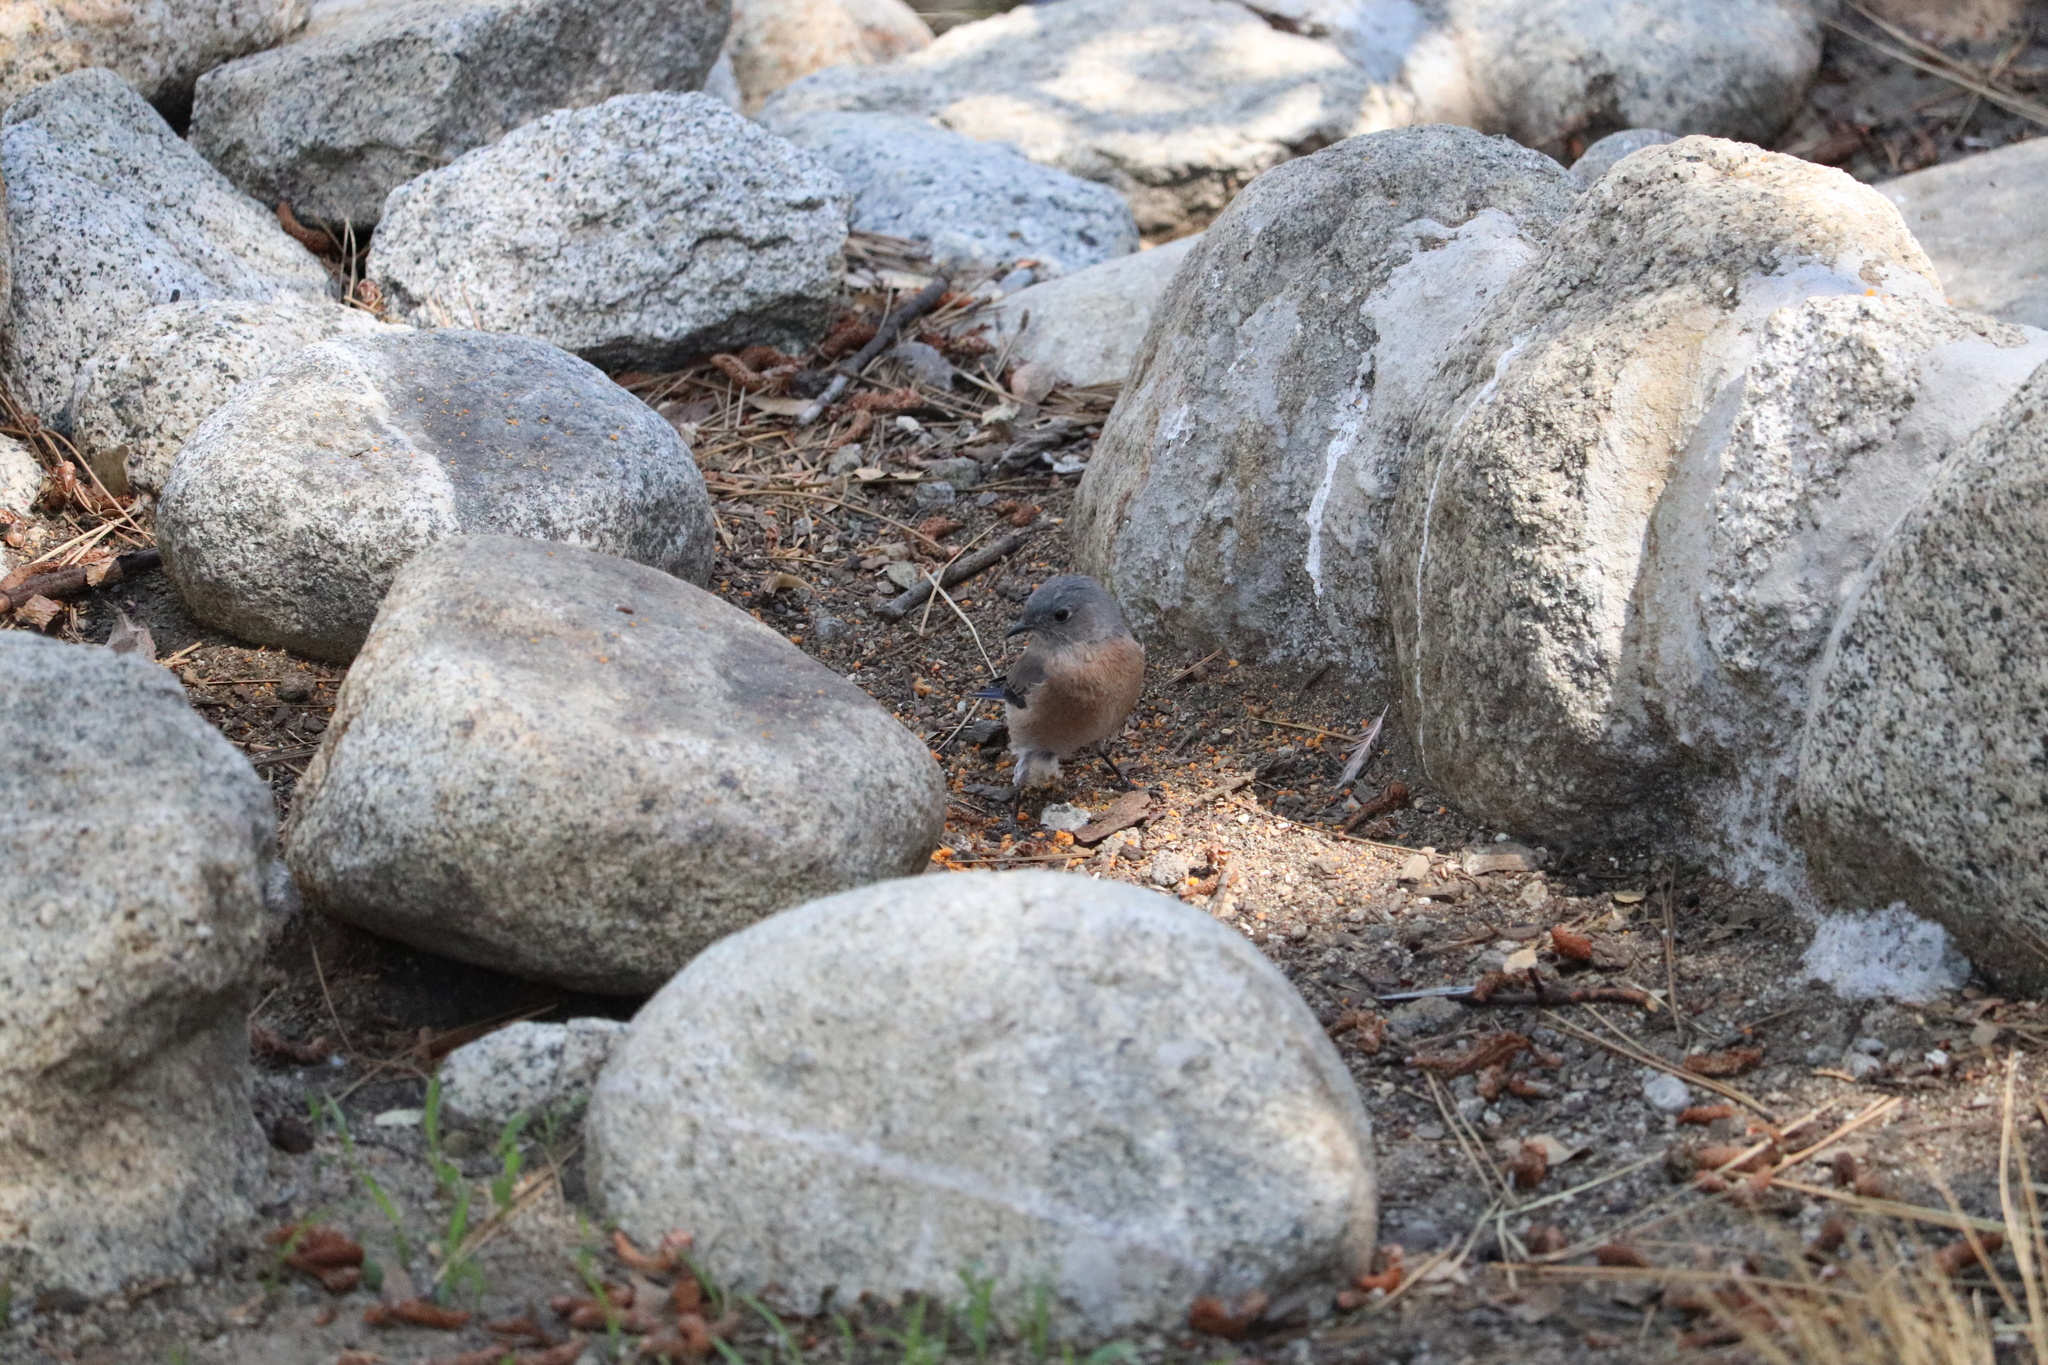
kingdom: Animalia
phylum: Chordata
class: Aves
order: Passeriformes
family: Turdidae
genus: Sialia
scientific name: Sialia mexicana
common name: Western bluebird
